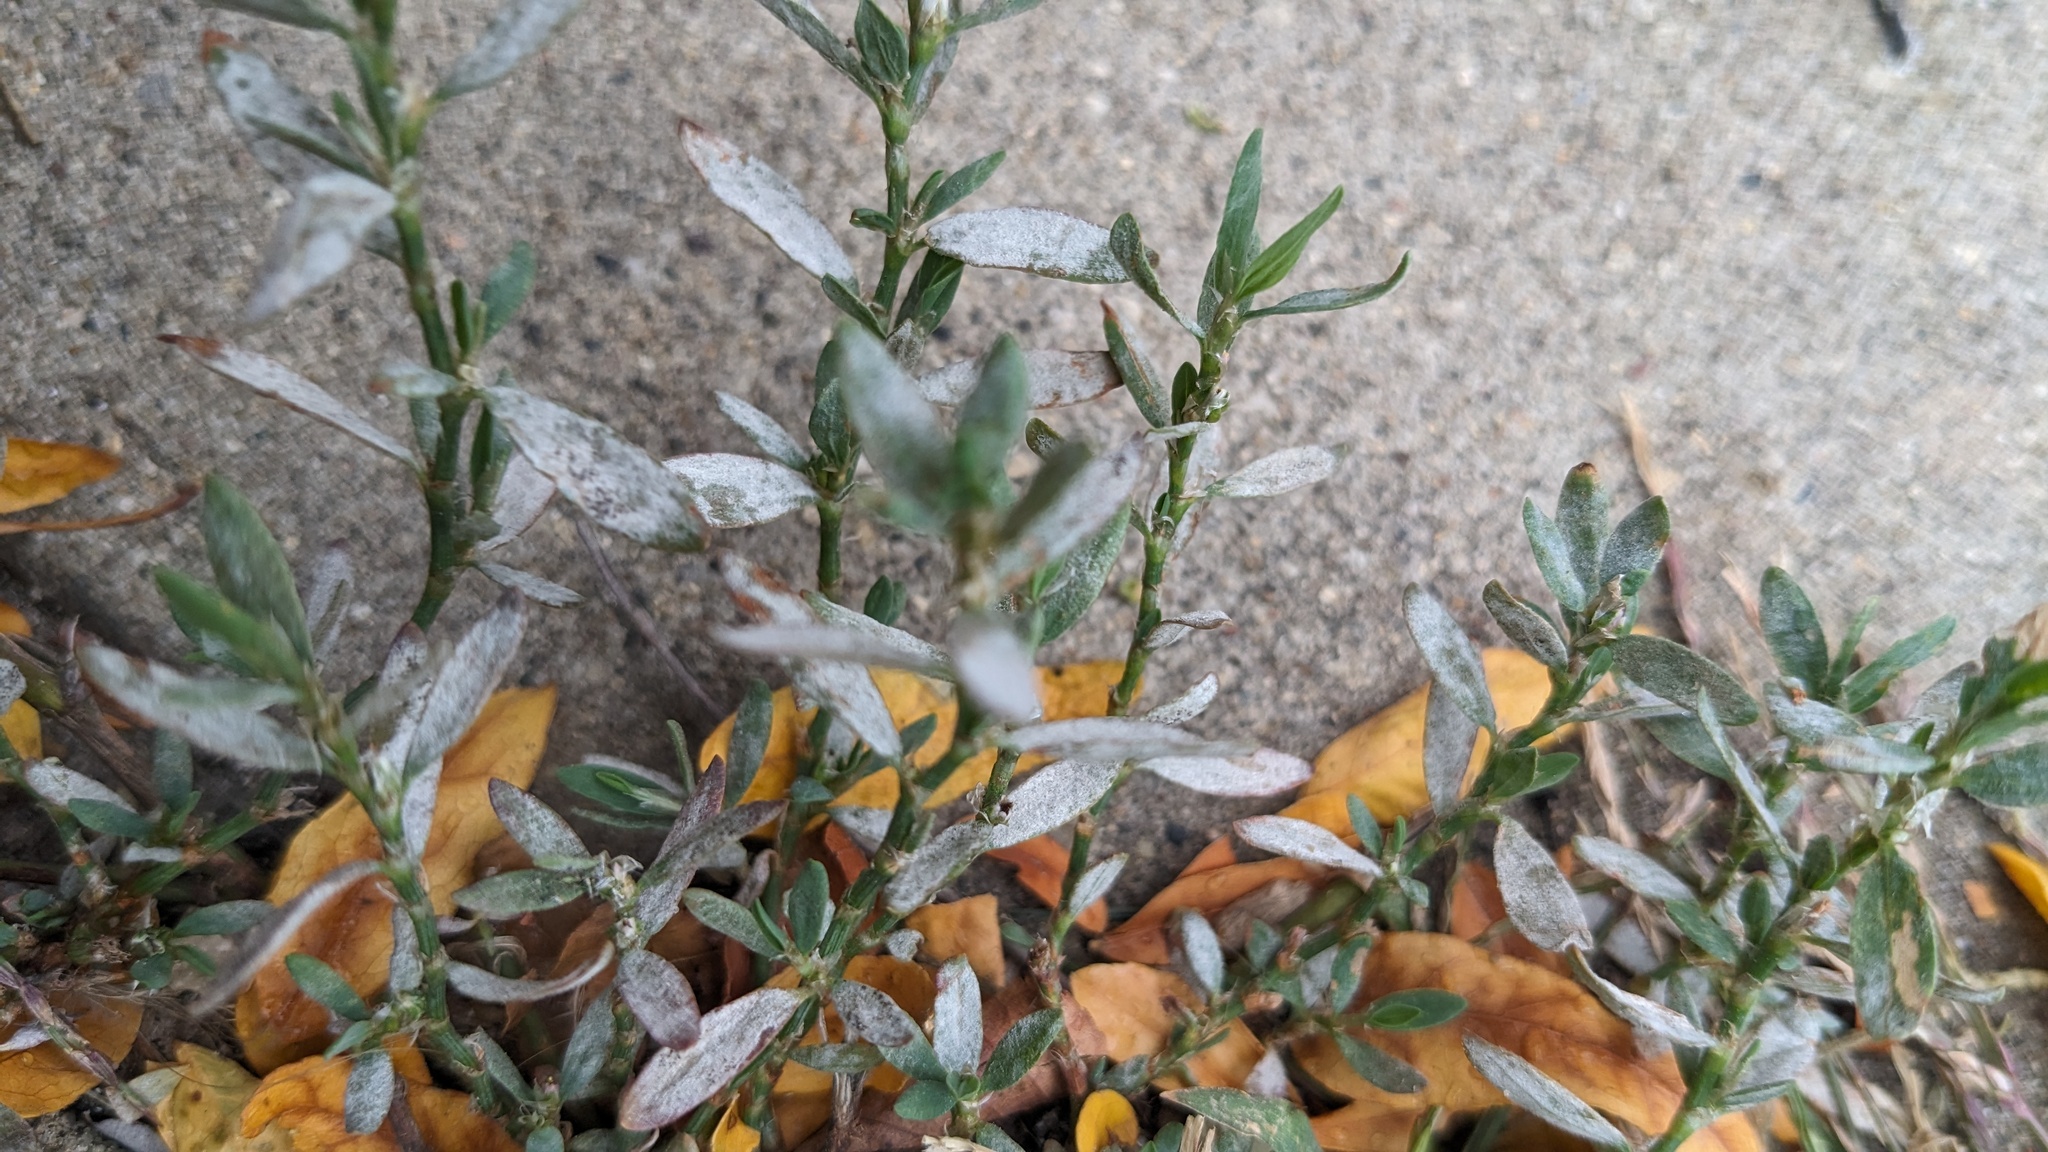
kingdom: Plantae
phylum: Tracheophyta
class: Magnoliopsida
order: Caryophyllales
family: Polygonaceae
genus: Polygonum
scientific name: Polygonum aviculare
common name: Prostrate knotweed
